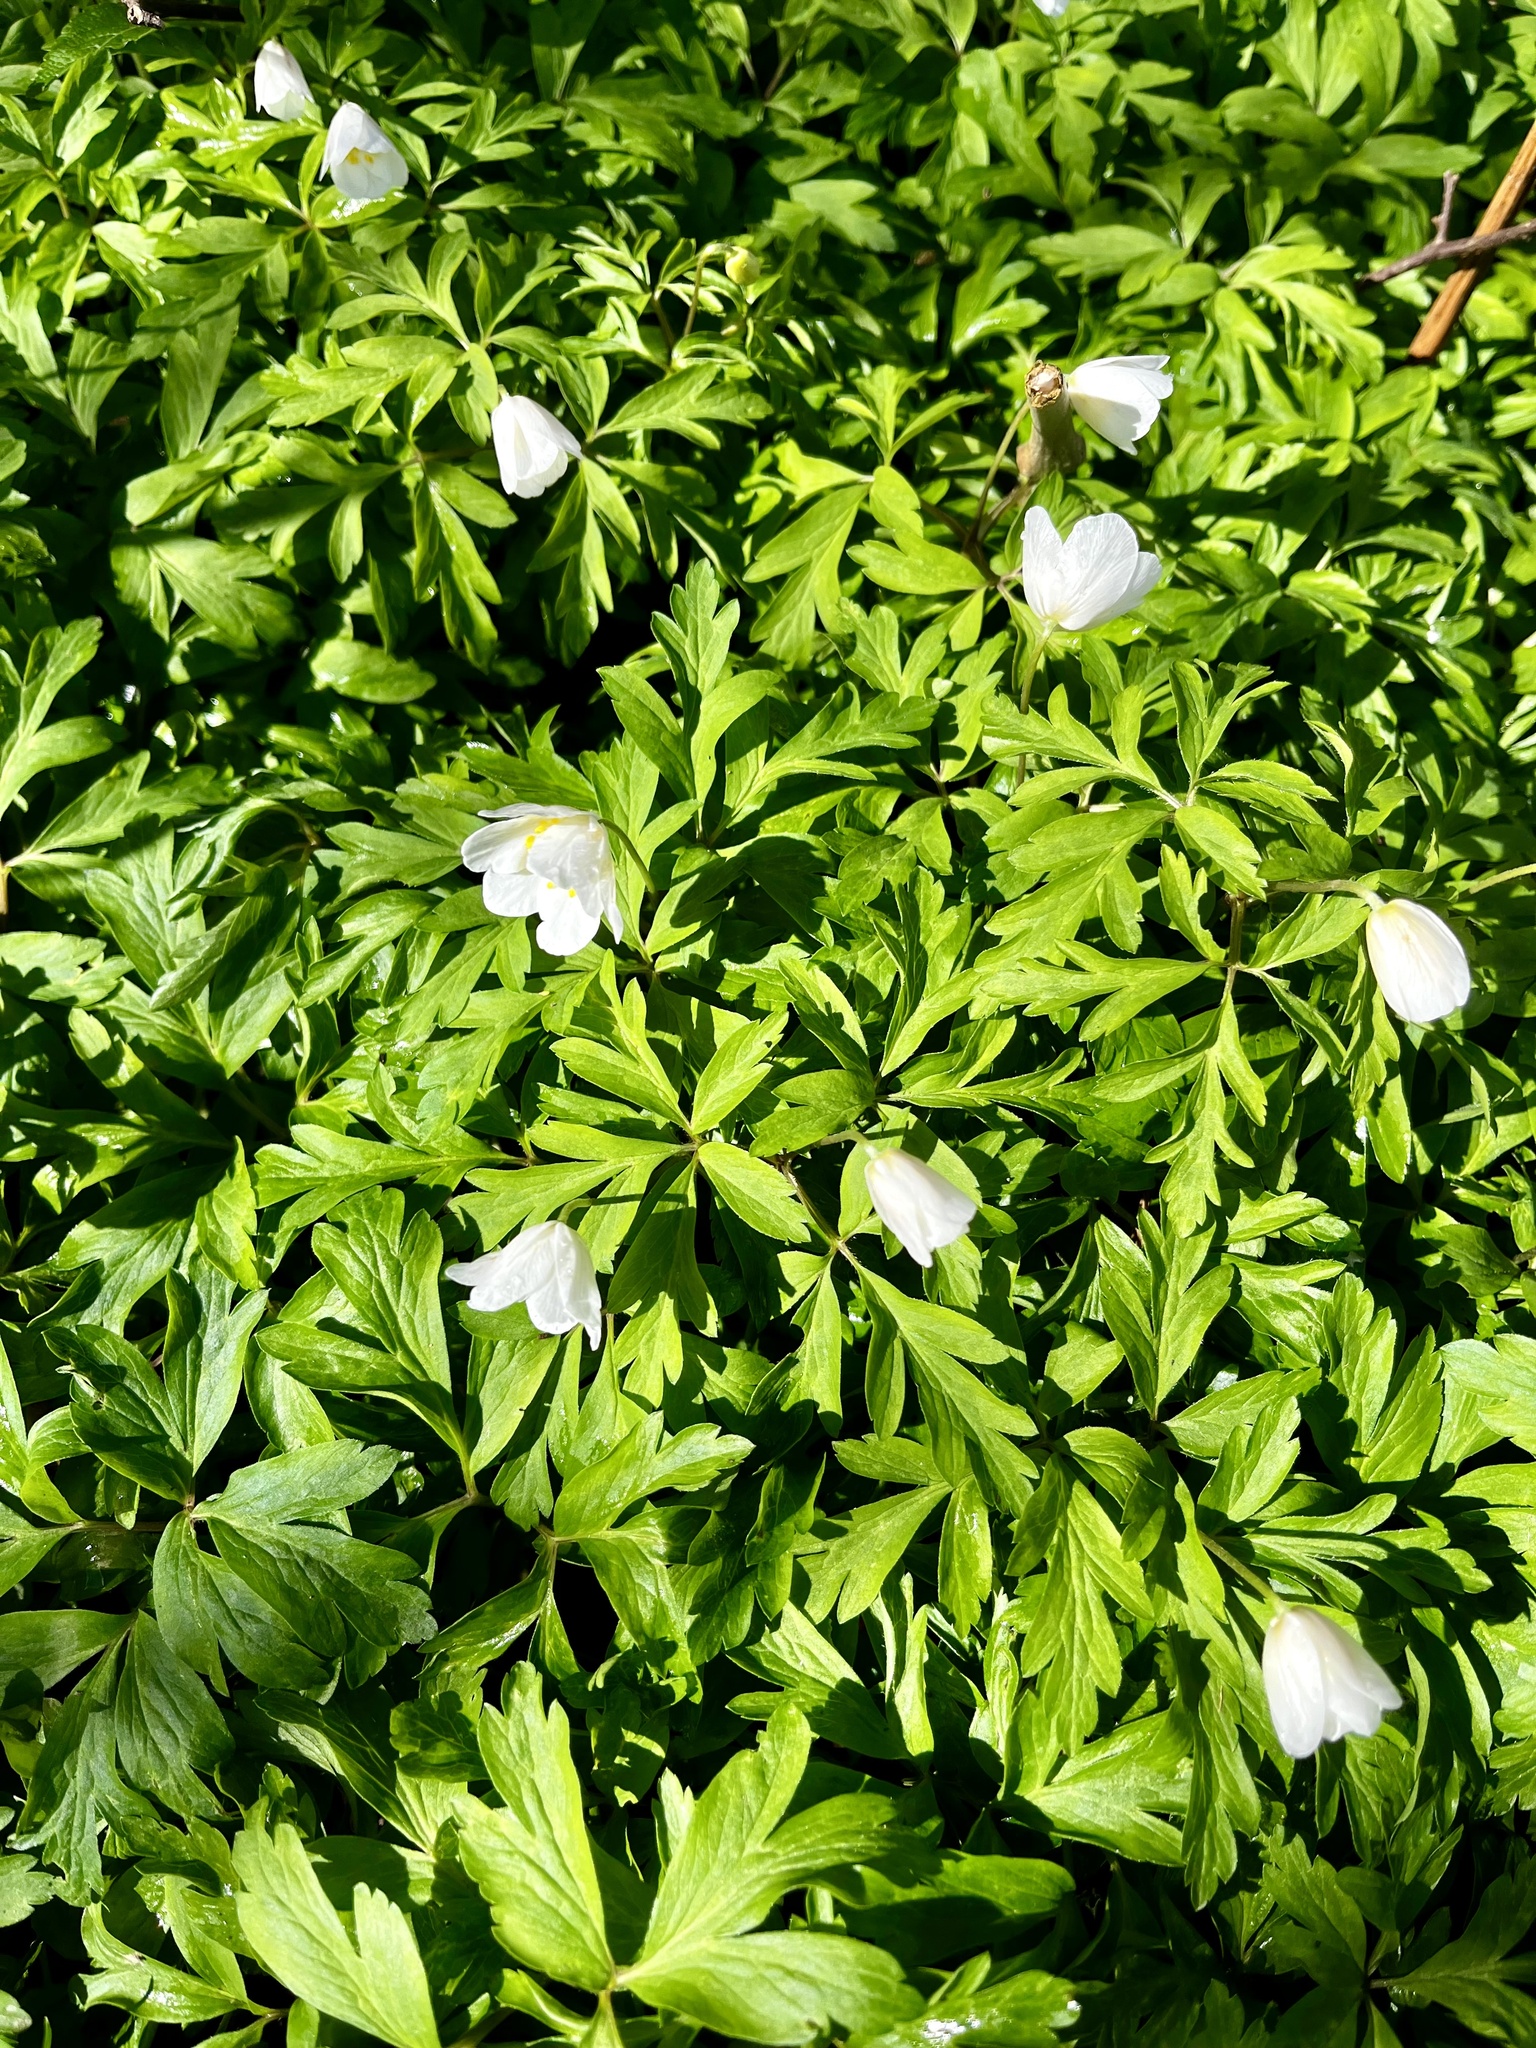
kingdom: Plantae
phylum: Tracheophyta
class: Magnoliopsida
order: Ranunculales
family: Ranunculaceae
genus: Anemone
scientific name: Anemone nemorosa
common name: Wood anemone
